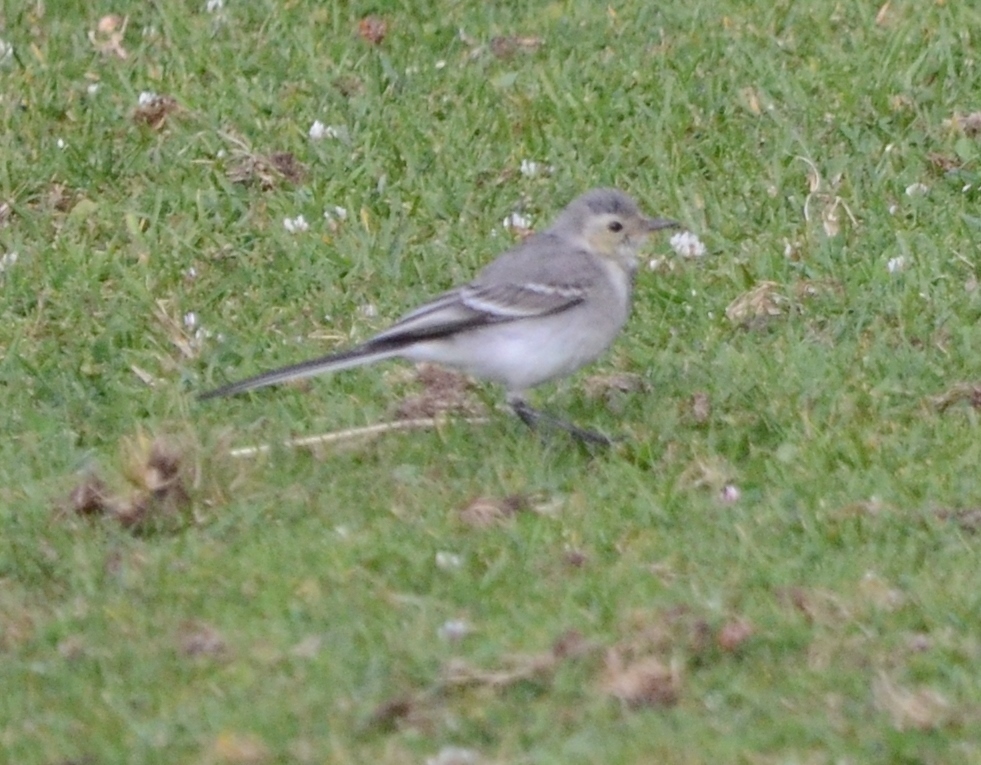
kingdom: Animalia
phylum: Chordata
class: Aves
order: Passeriformes
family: Motacillidae
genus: Motacilla
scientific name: Motacilla alba
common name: White wagtail
